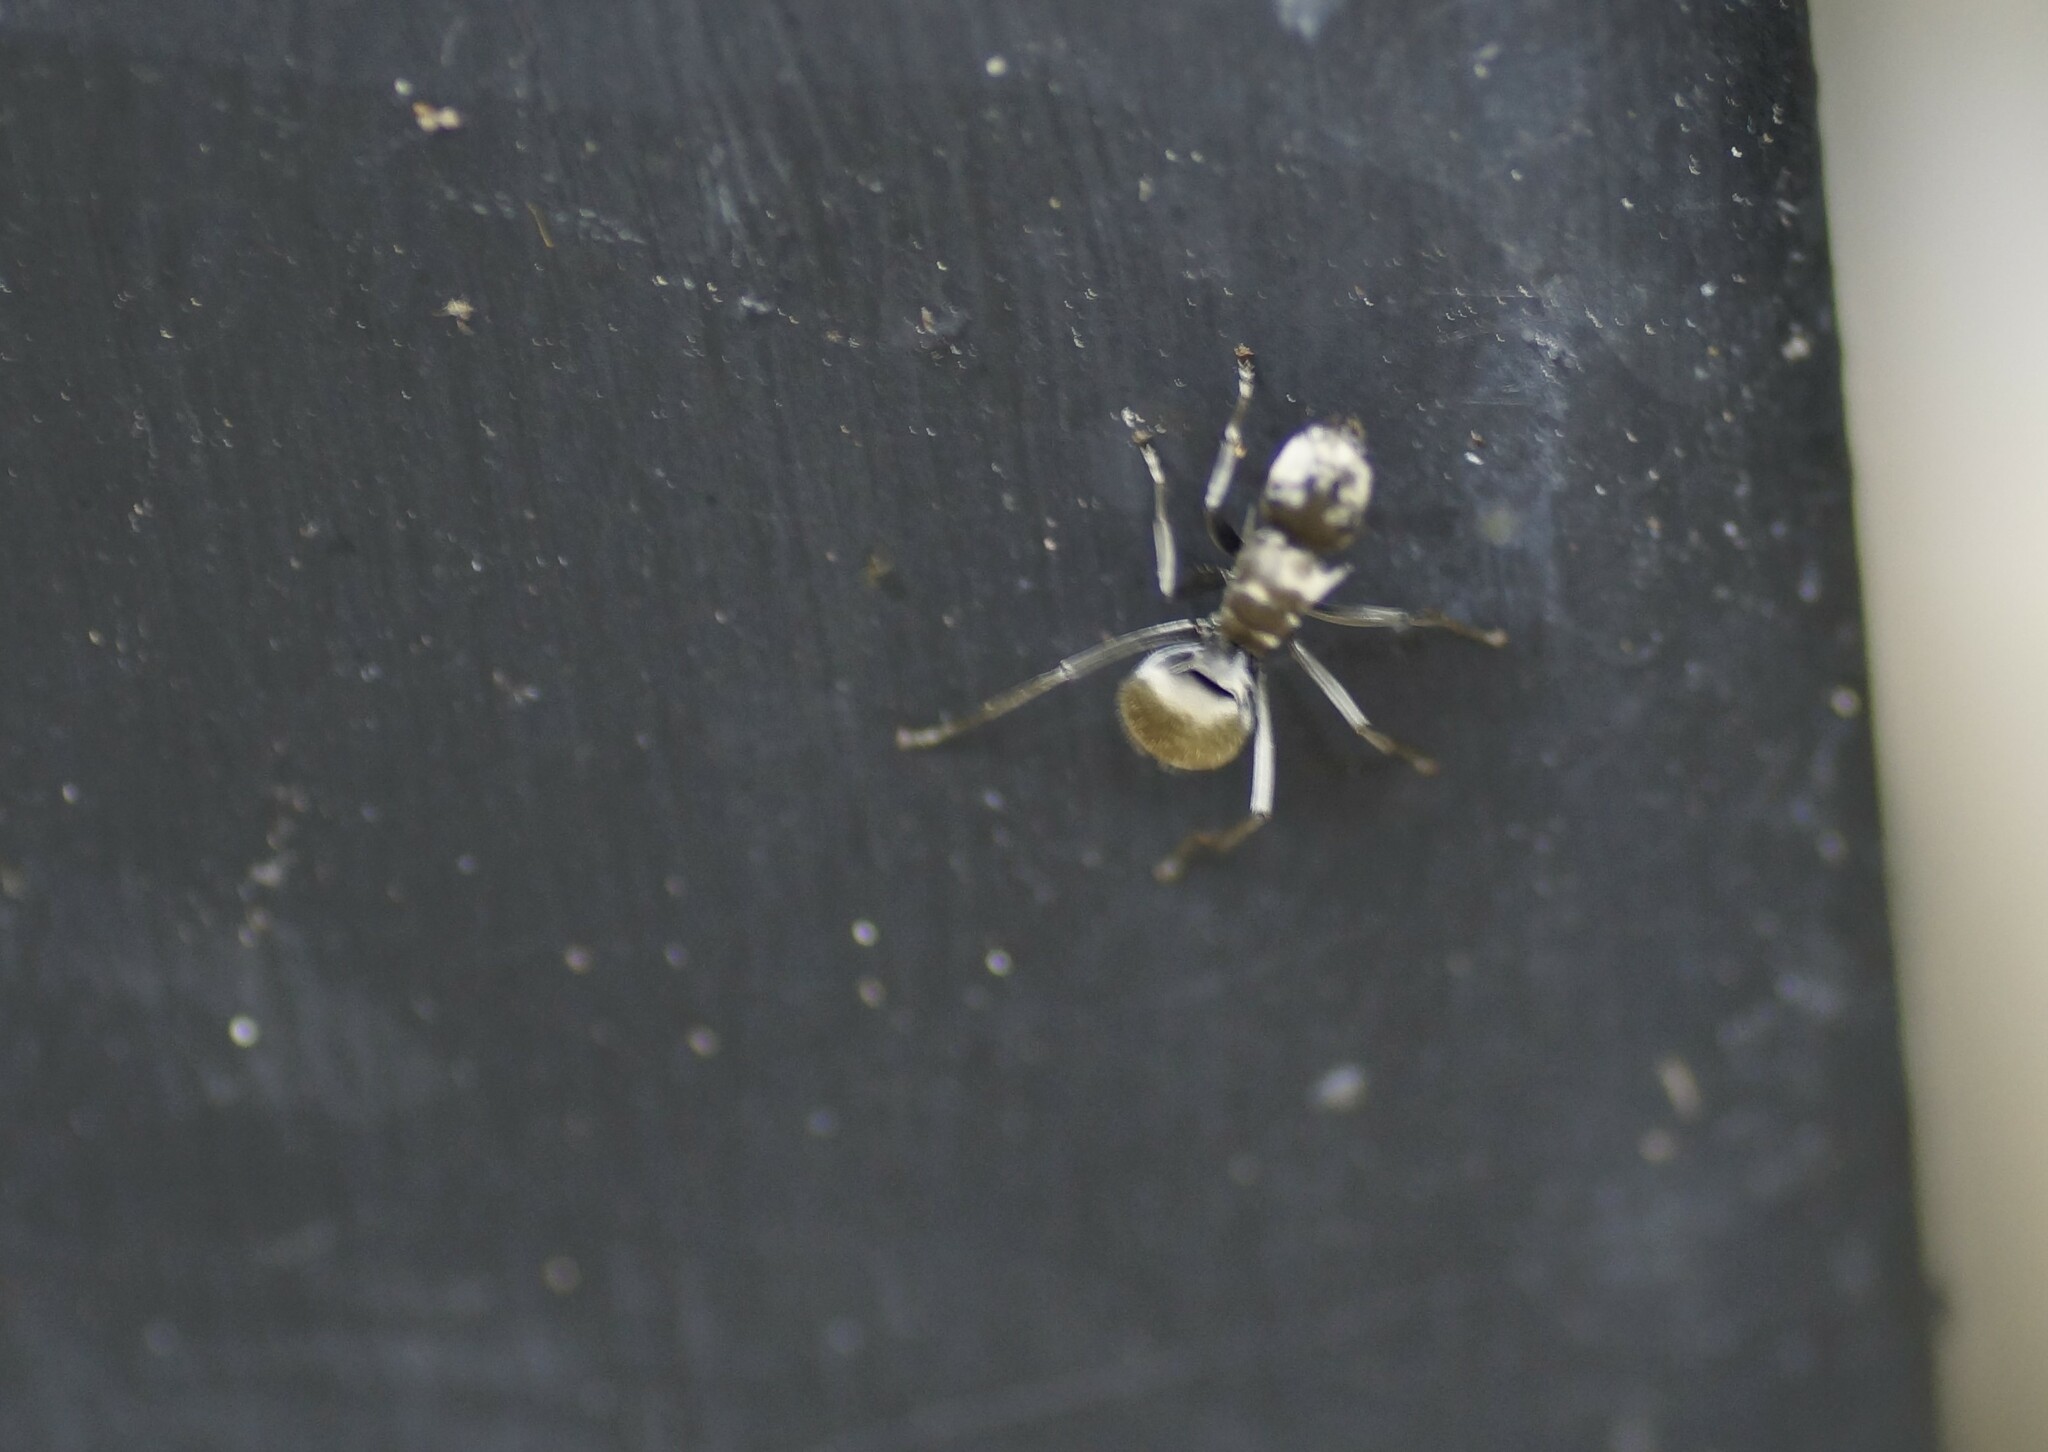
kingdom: Animalia
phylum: Arthropoda
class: Insecta
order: Hymenoptera
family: Formicidae
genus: Polyrhachis
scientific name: Polyrhachis foreli
